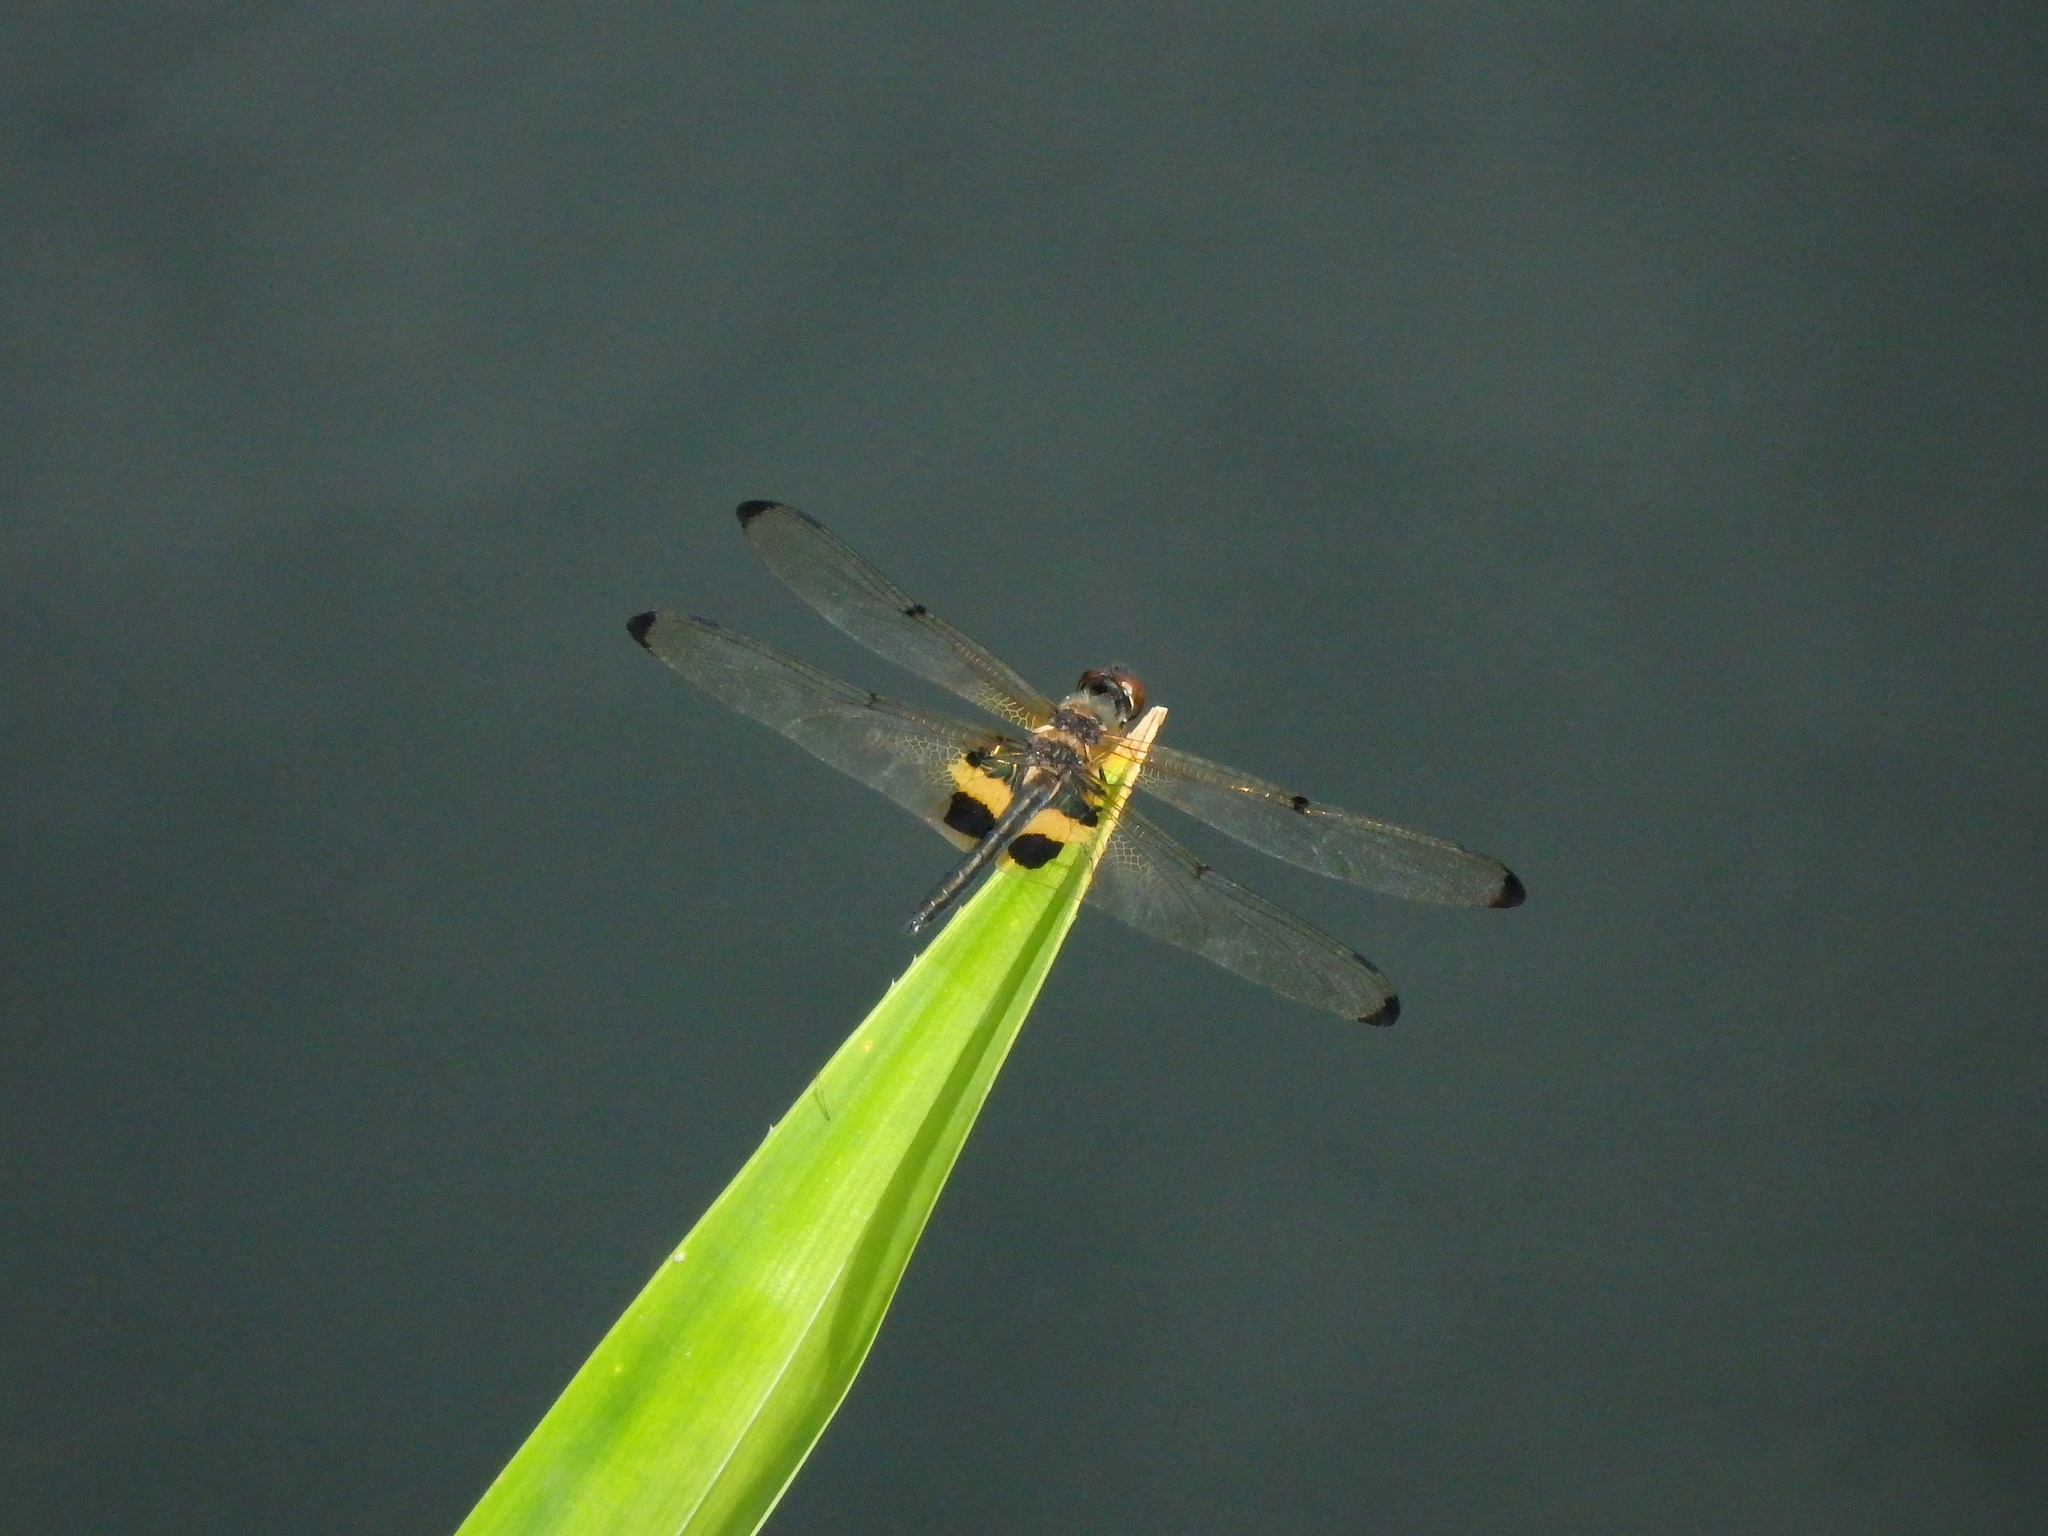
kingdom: Animalia
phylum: Arthropoda
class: Insecta
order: Odonata
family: Libellulidae
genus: Rhyothemis
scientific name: Rhyothemis phyllis
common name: Yellow-barred flutterer
